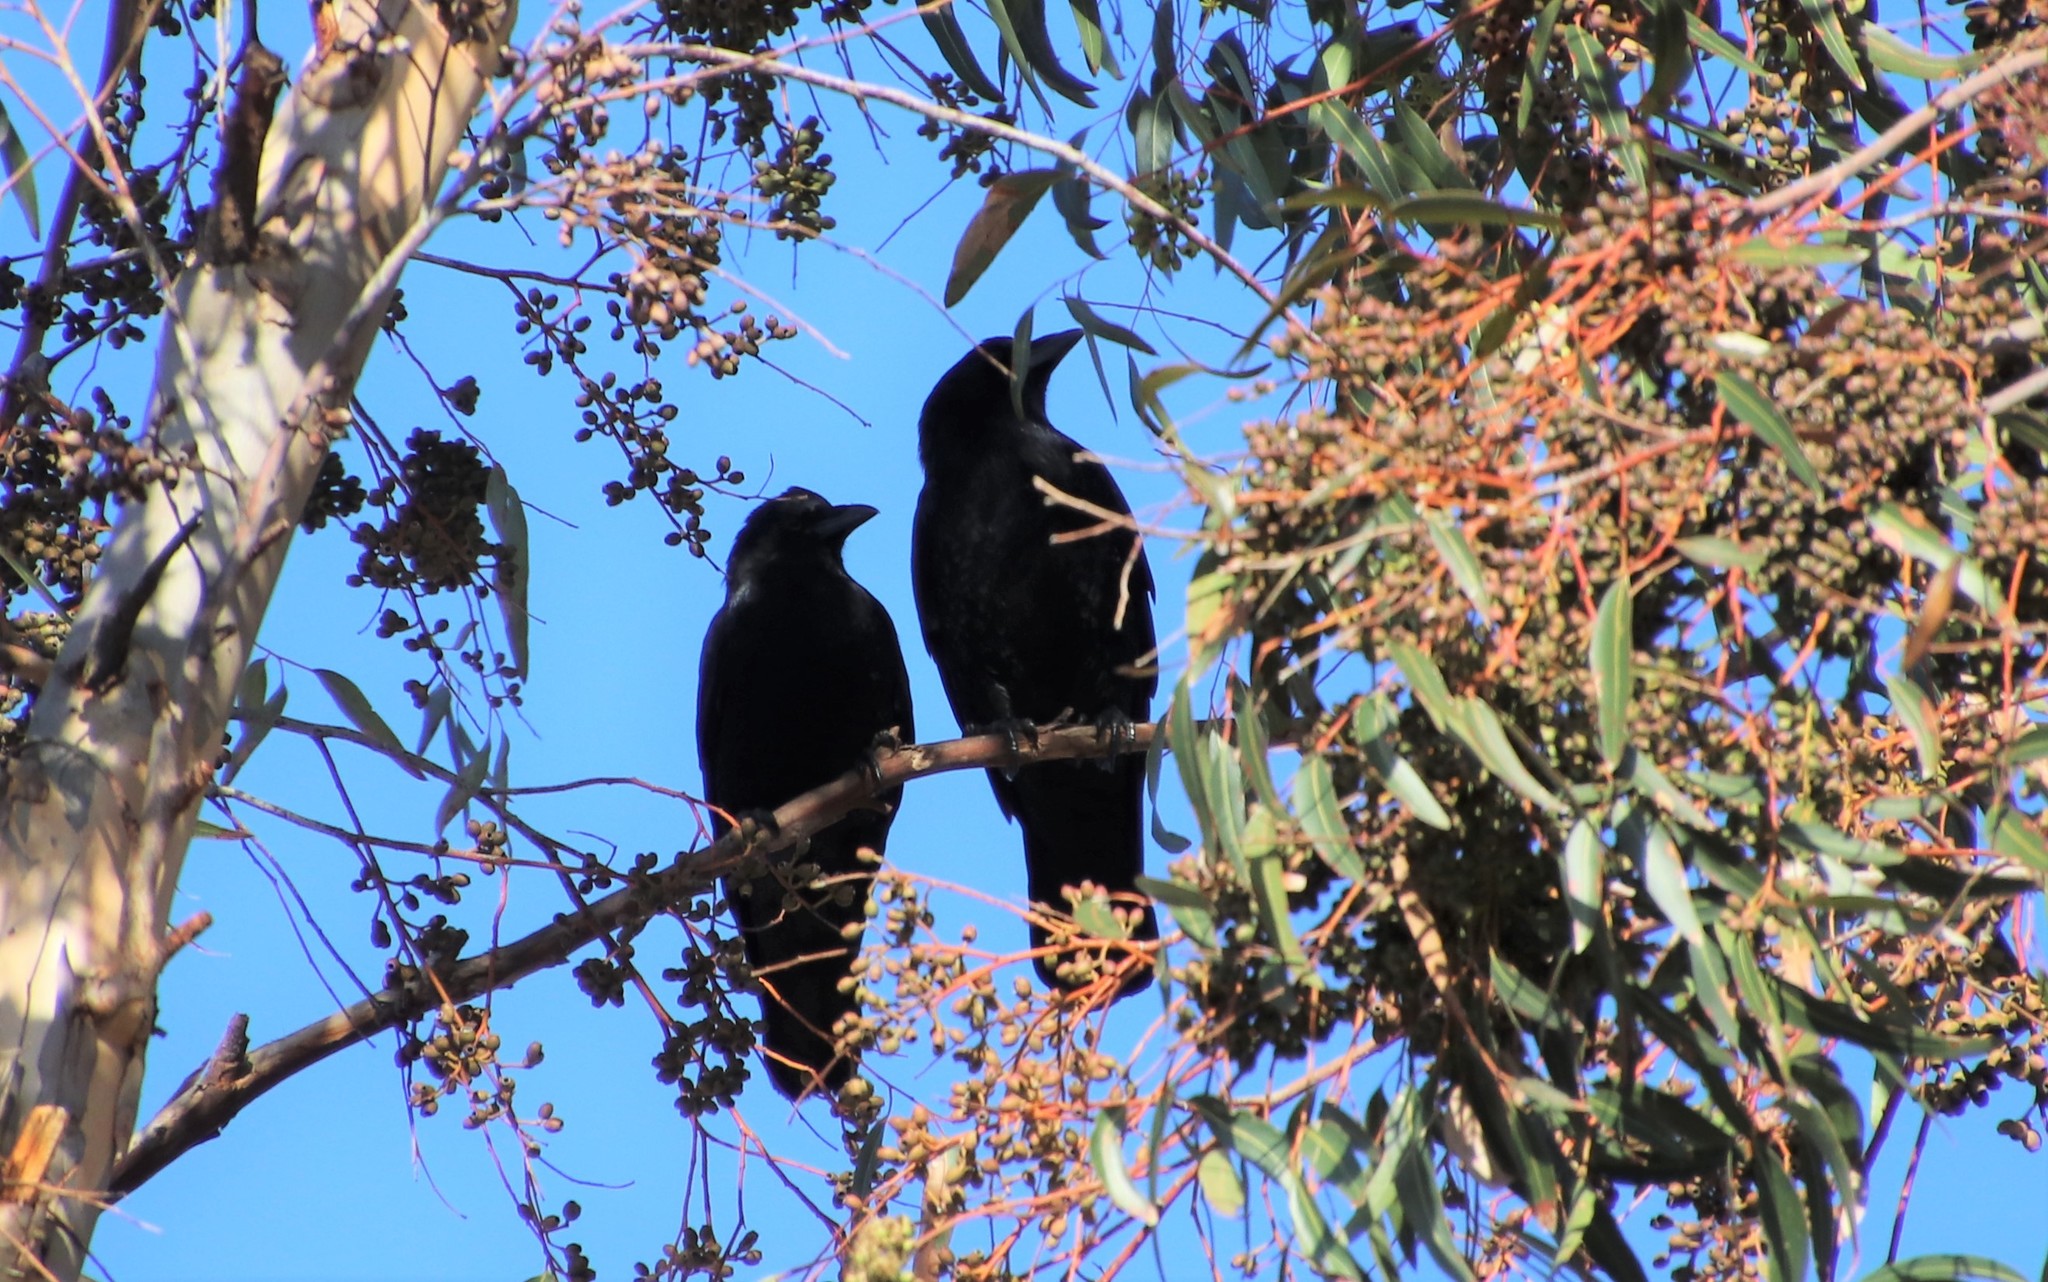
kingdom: Animalia
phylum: Chordata
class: Aves
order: Passeriformes
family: Corvidae
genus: Corvus
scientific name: Corvus brachyrhynchos
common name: American crow
